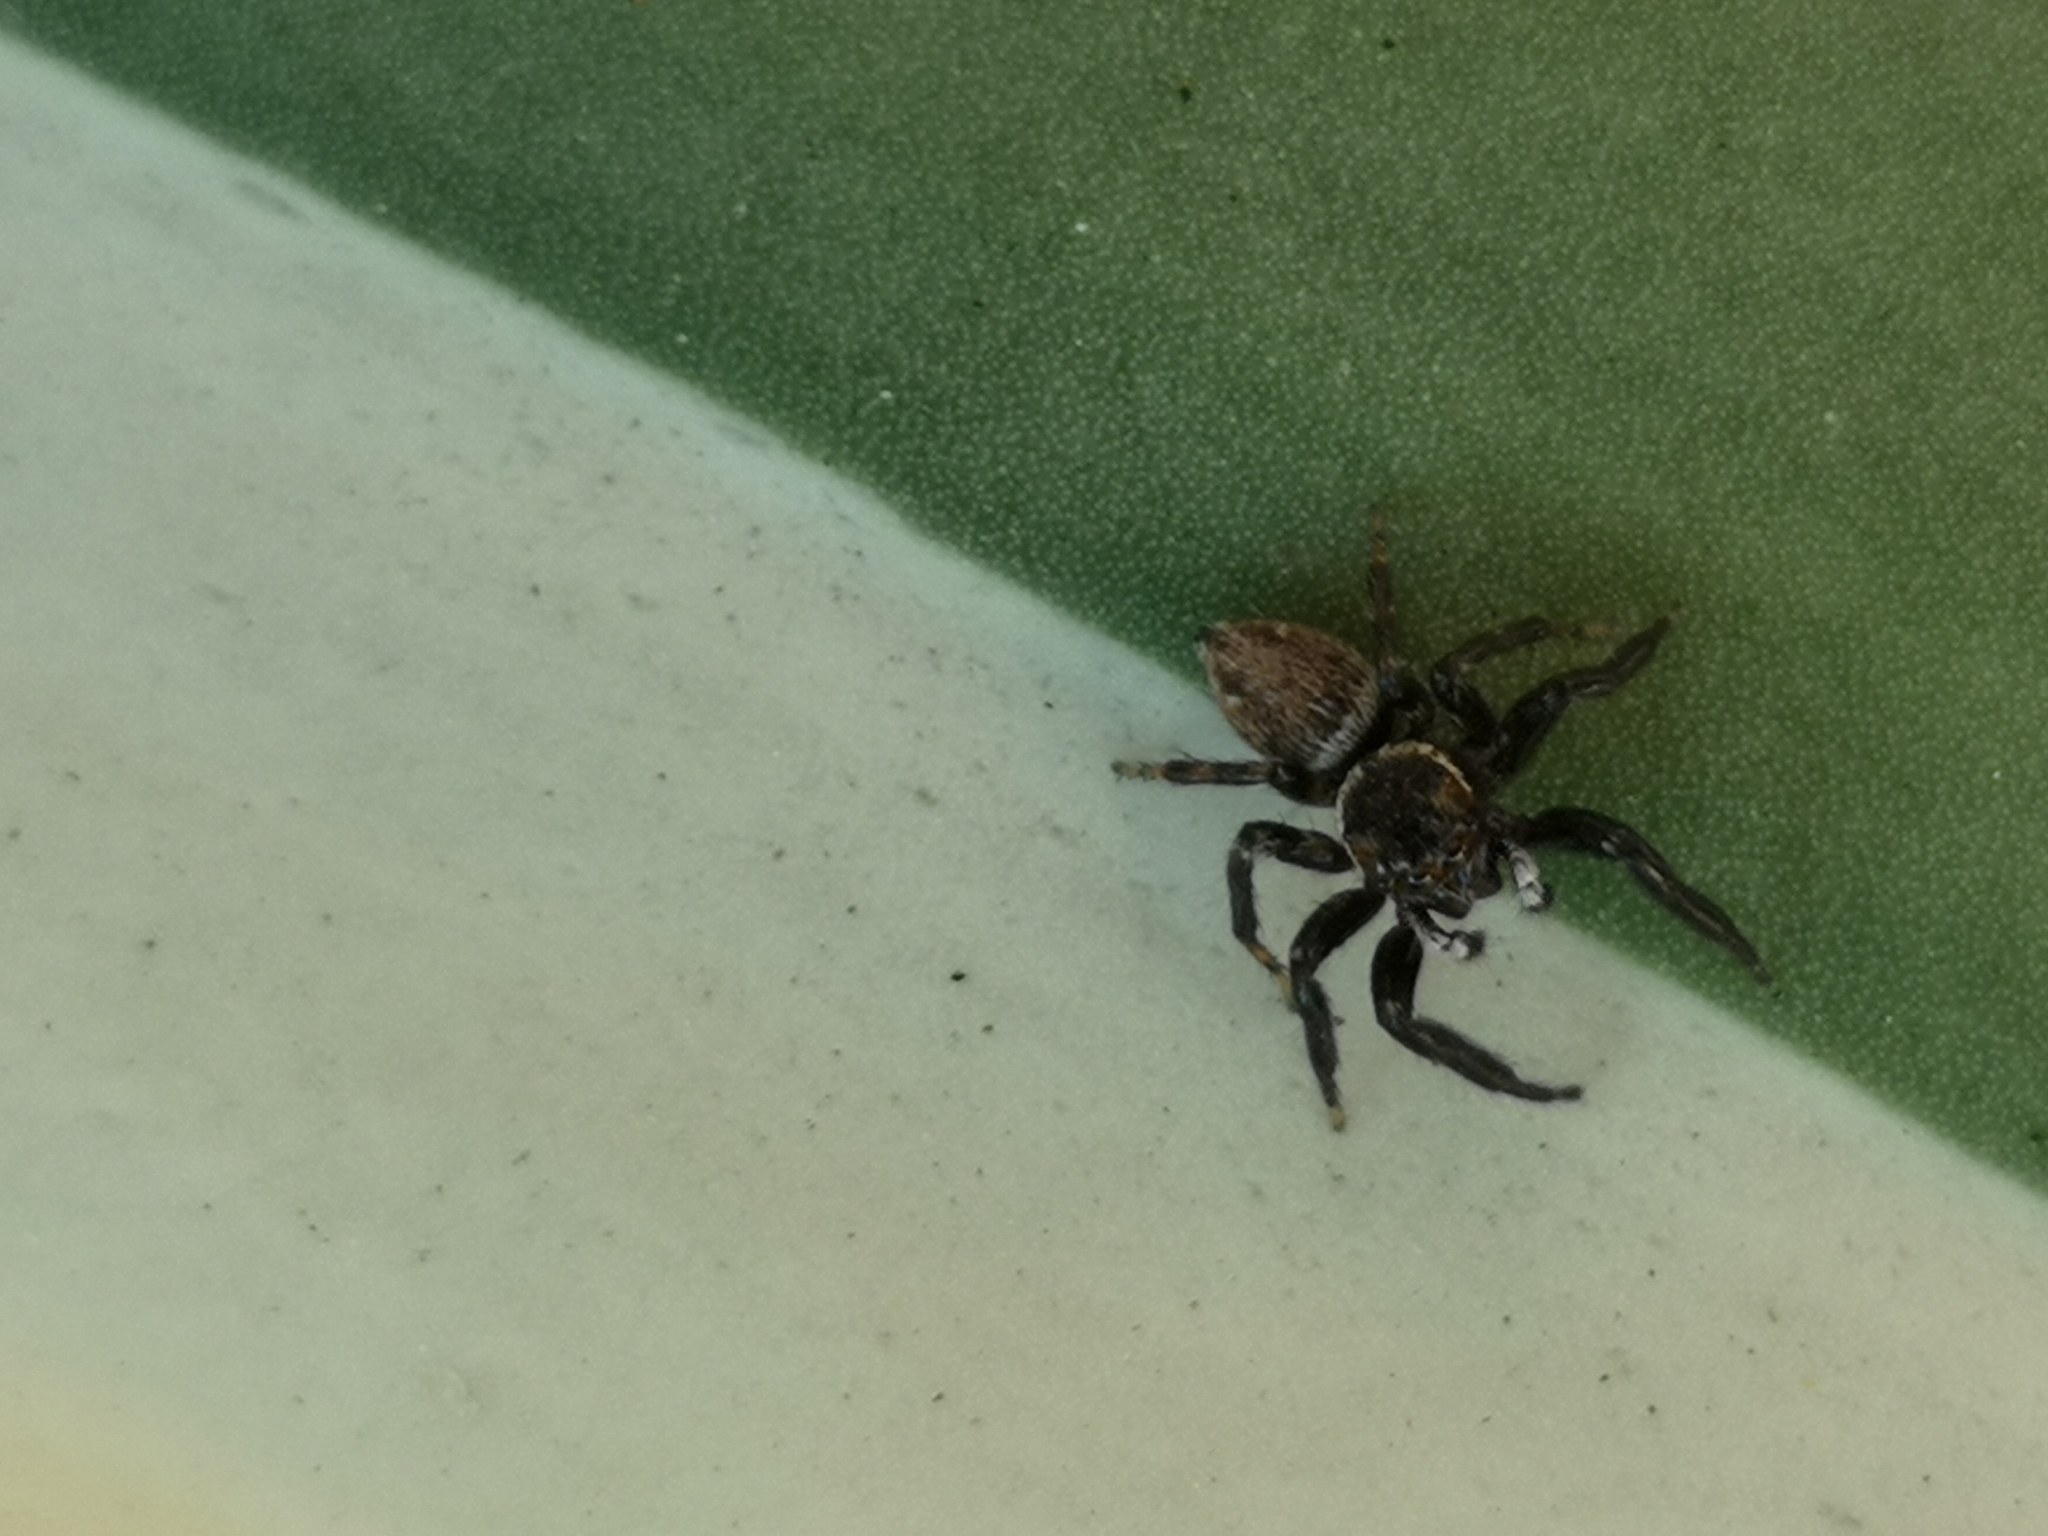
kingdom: Animalia
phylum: Arthropoda
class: Arachnida
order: Araneae
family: Salticidae
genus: Evarcha
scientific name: Evarcha jucunda
